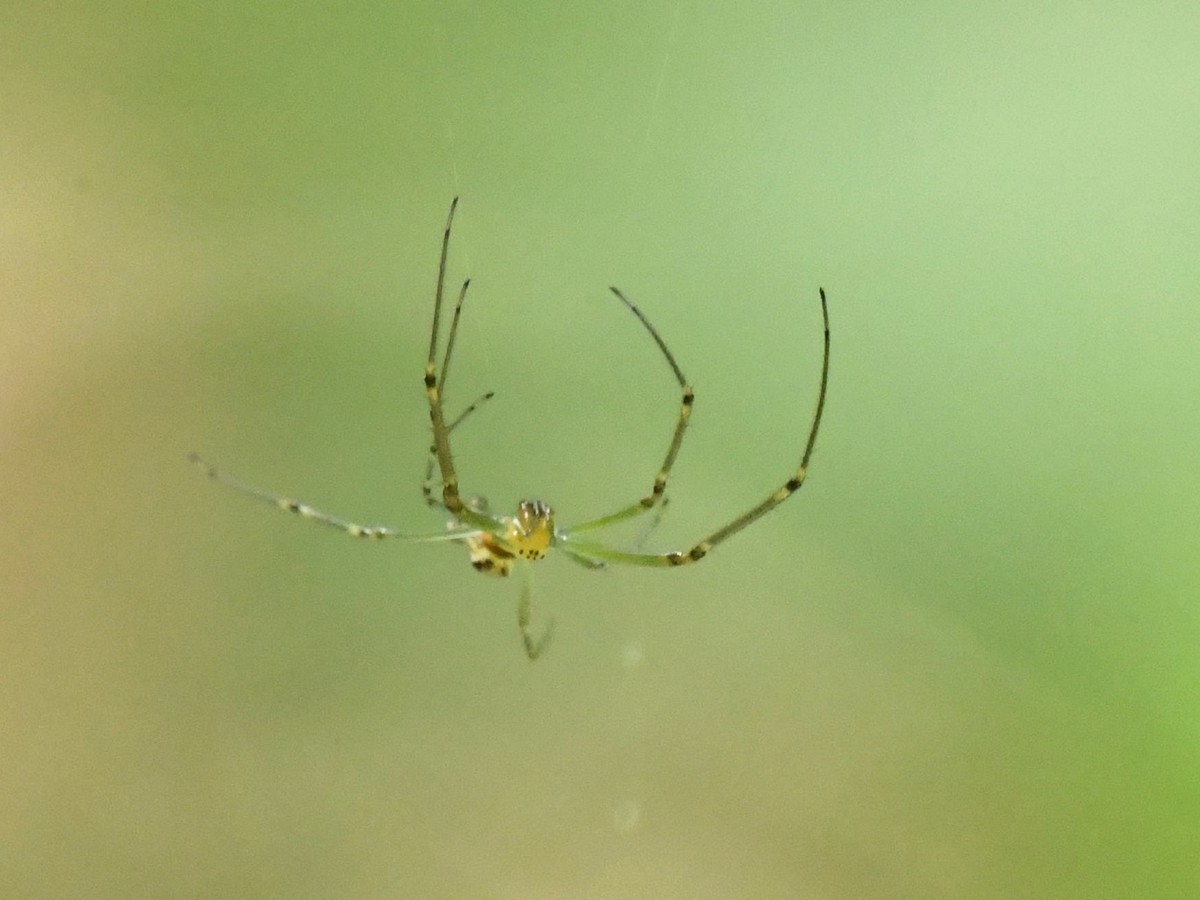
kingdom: Animalia
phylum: Arthropoda
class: Arachnida
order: Araneae
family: Tetragnathidae
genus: Leucauge
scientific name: Leucauge decorata
